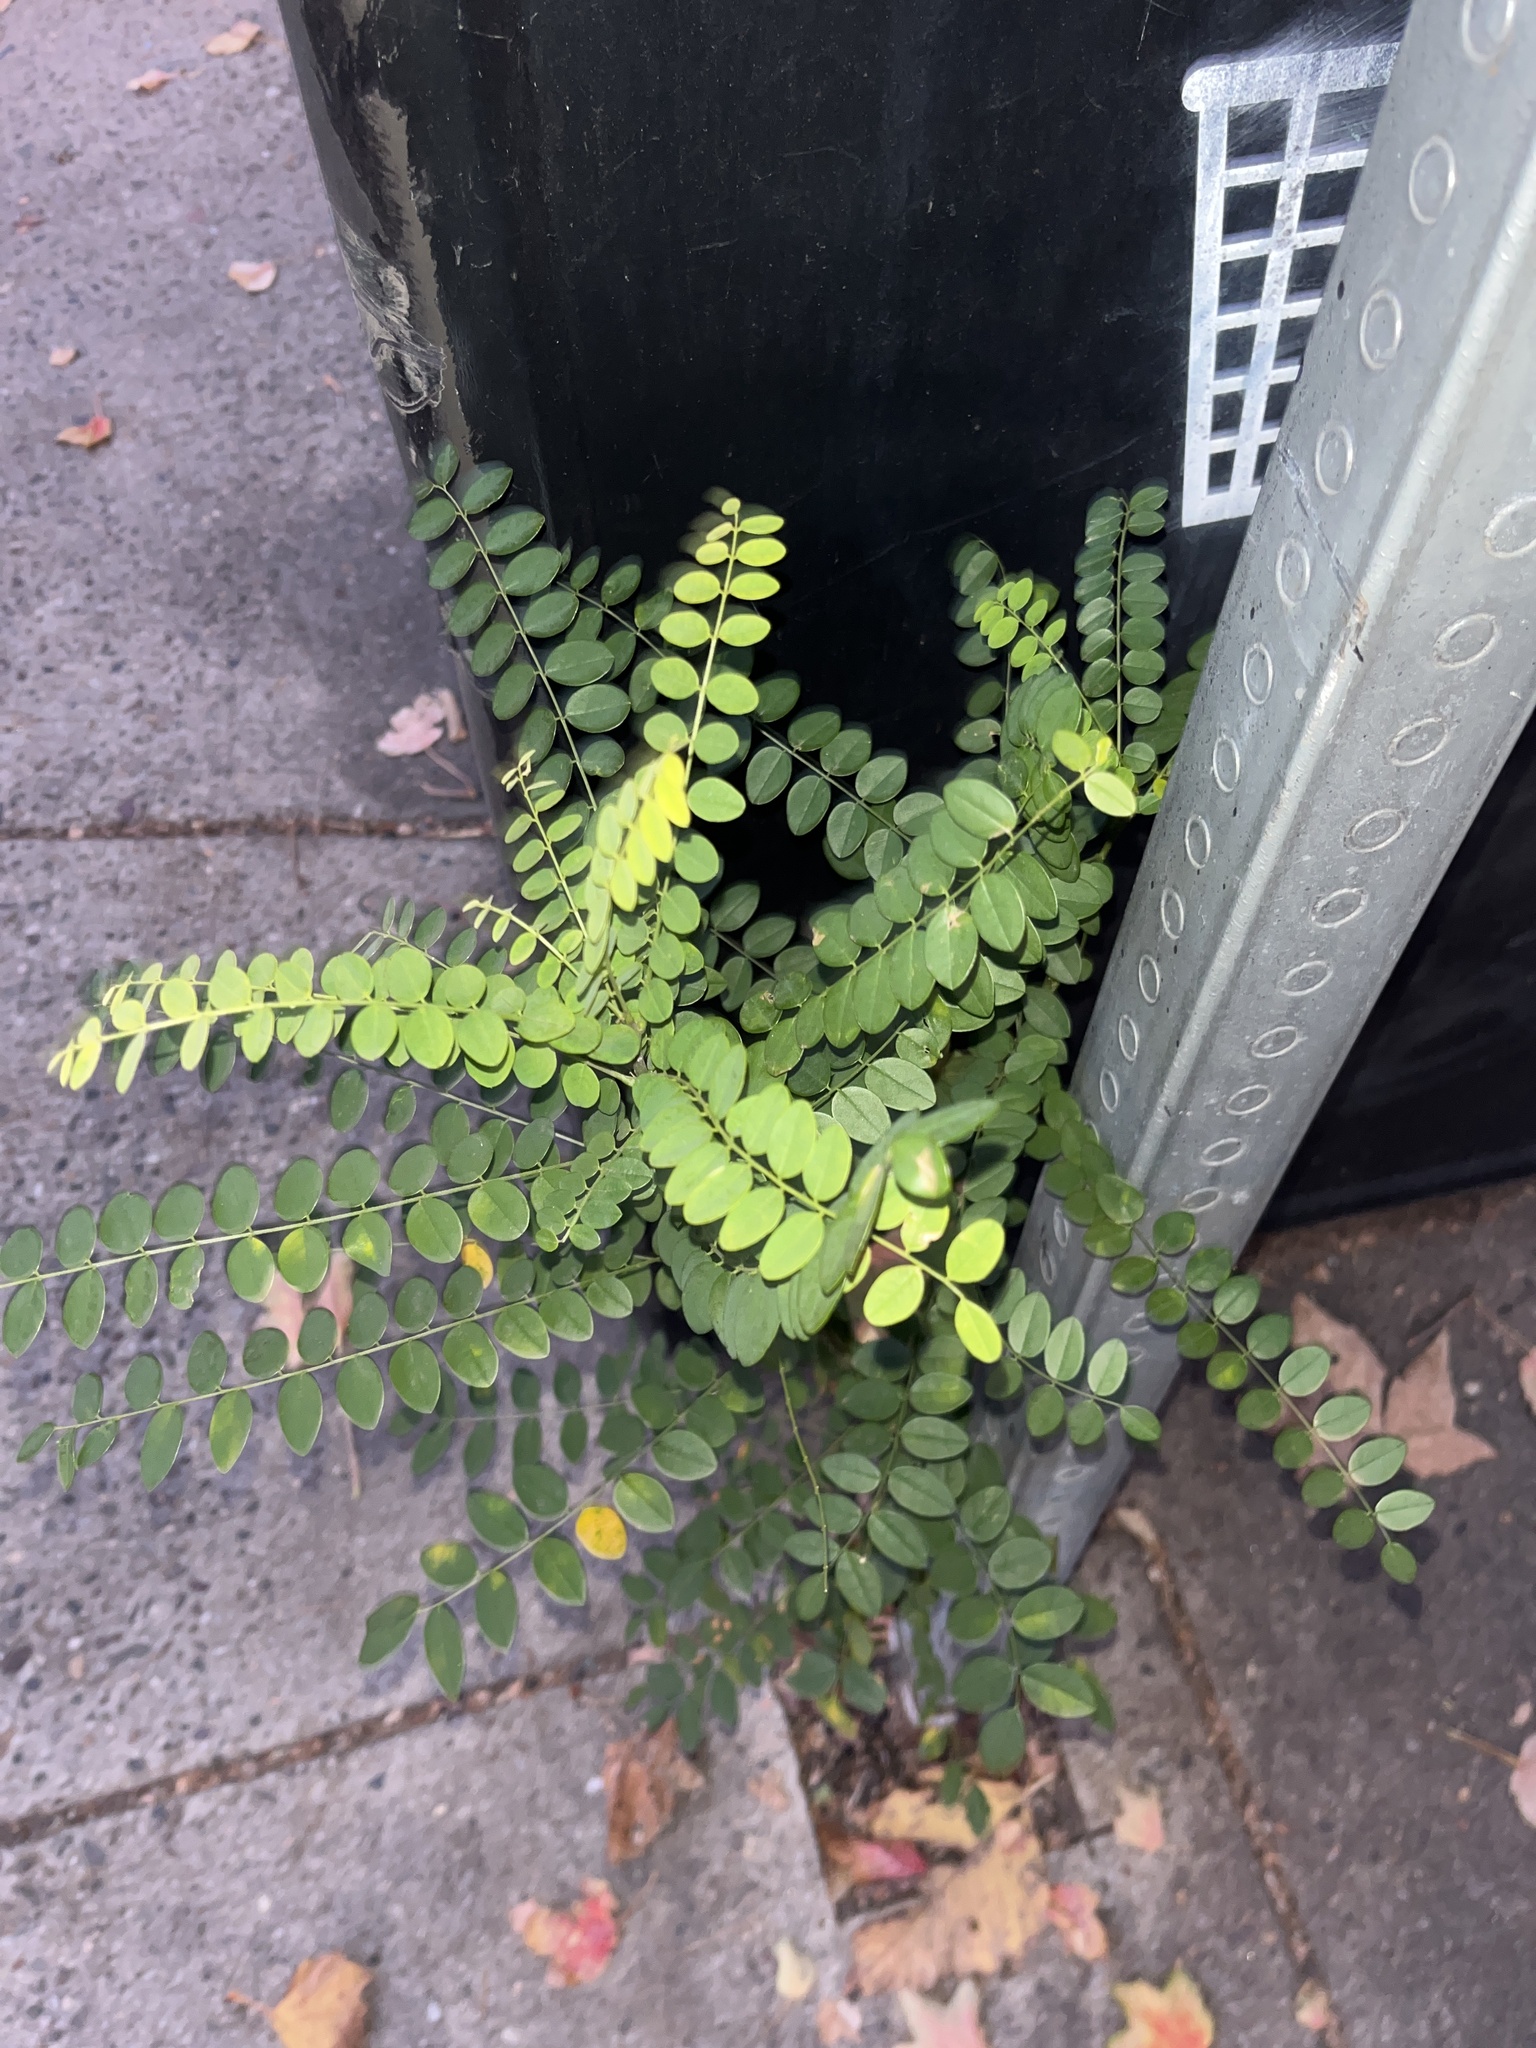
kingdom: Plantae
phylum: Tracheophyta
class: Magnoliopsida
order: Fabales
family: Fabaceae
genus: Styphnolobium
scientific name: Styphnolobium japonicum
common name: Chinese scholartree
